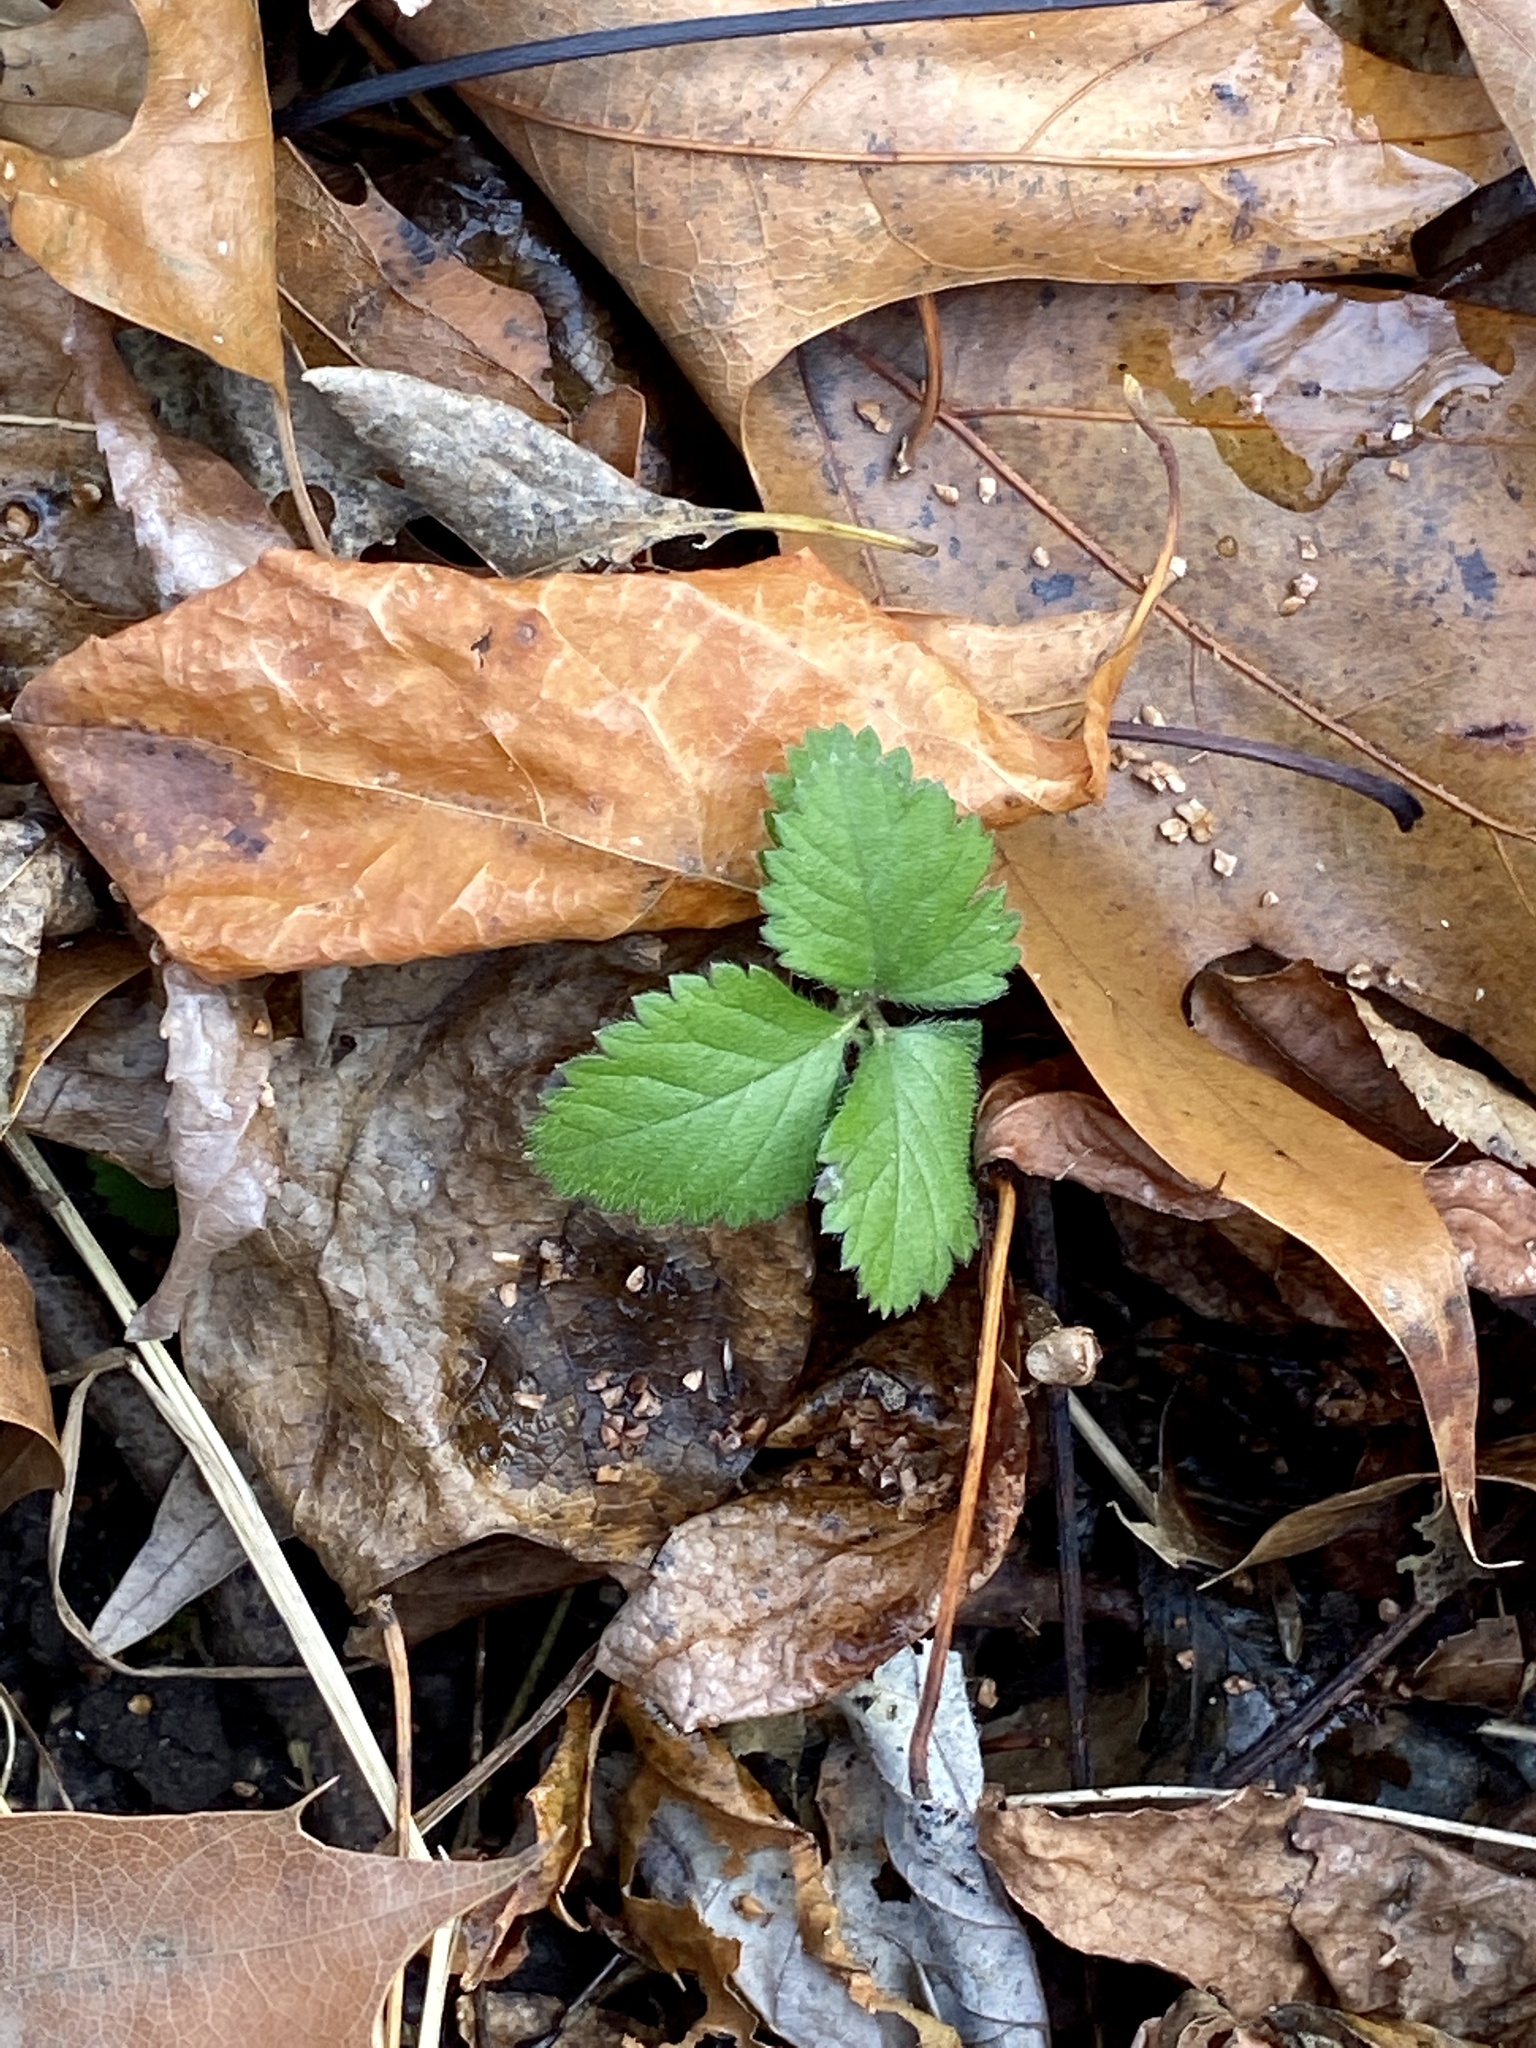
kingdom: Plantae
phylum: Tracheophyta
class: Magnoliopsida
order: Rosales
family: Rosaceae
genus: Potentilla
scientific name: Potentilla indica
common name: Yellow-flowered strawberry
